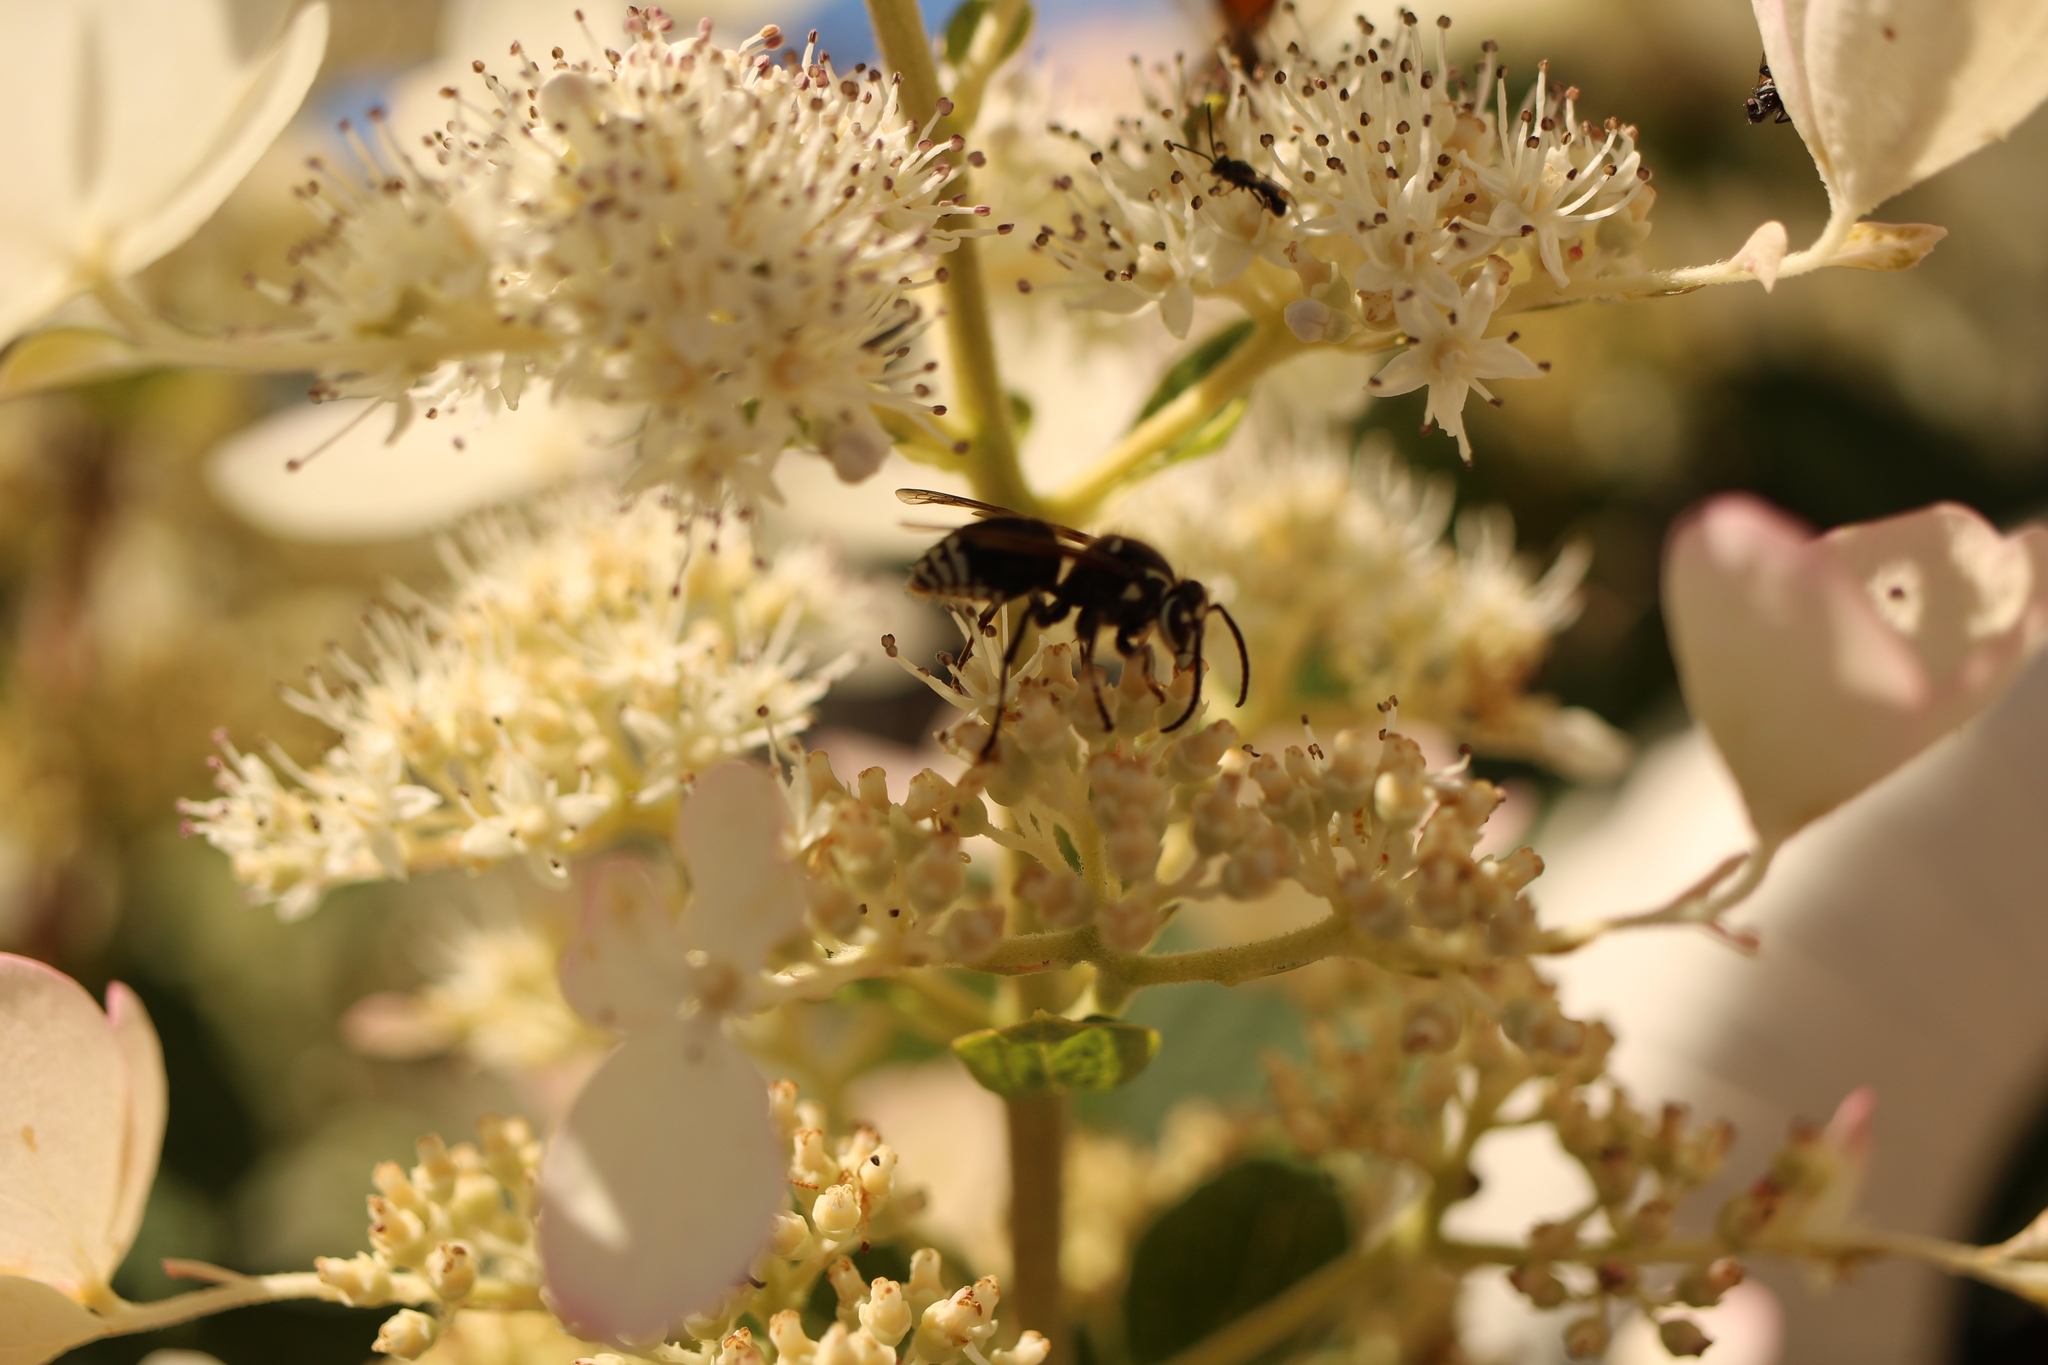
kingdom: Animalia
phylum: Arthropoda
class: Insecta
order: Hymenoptera
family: Vespidae
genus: Dolichovespula
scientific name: Dolichovespula maculata
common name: Bald-faced hornet
